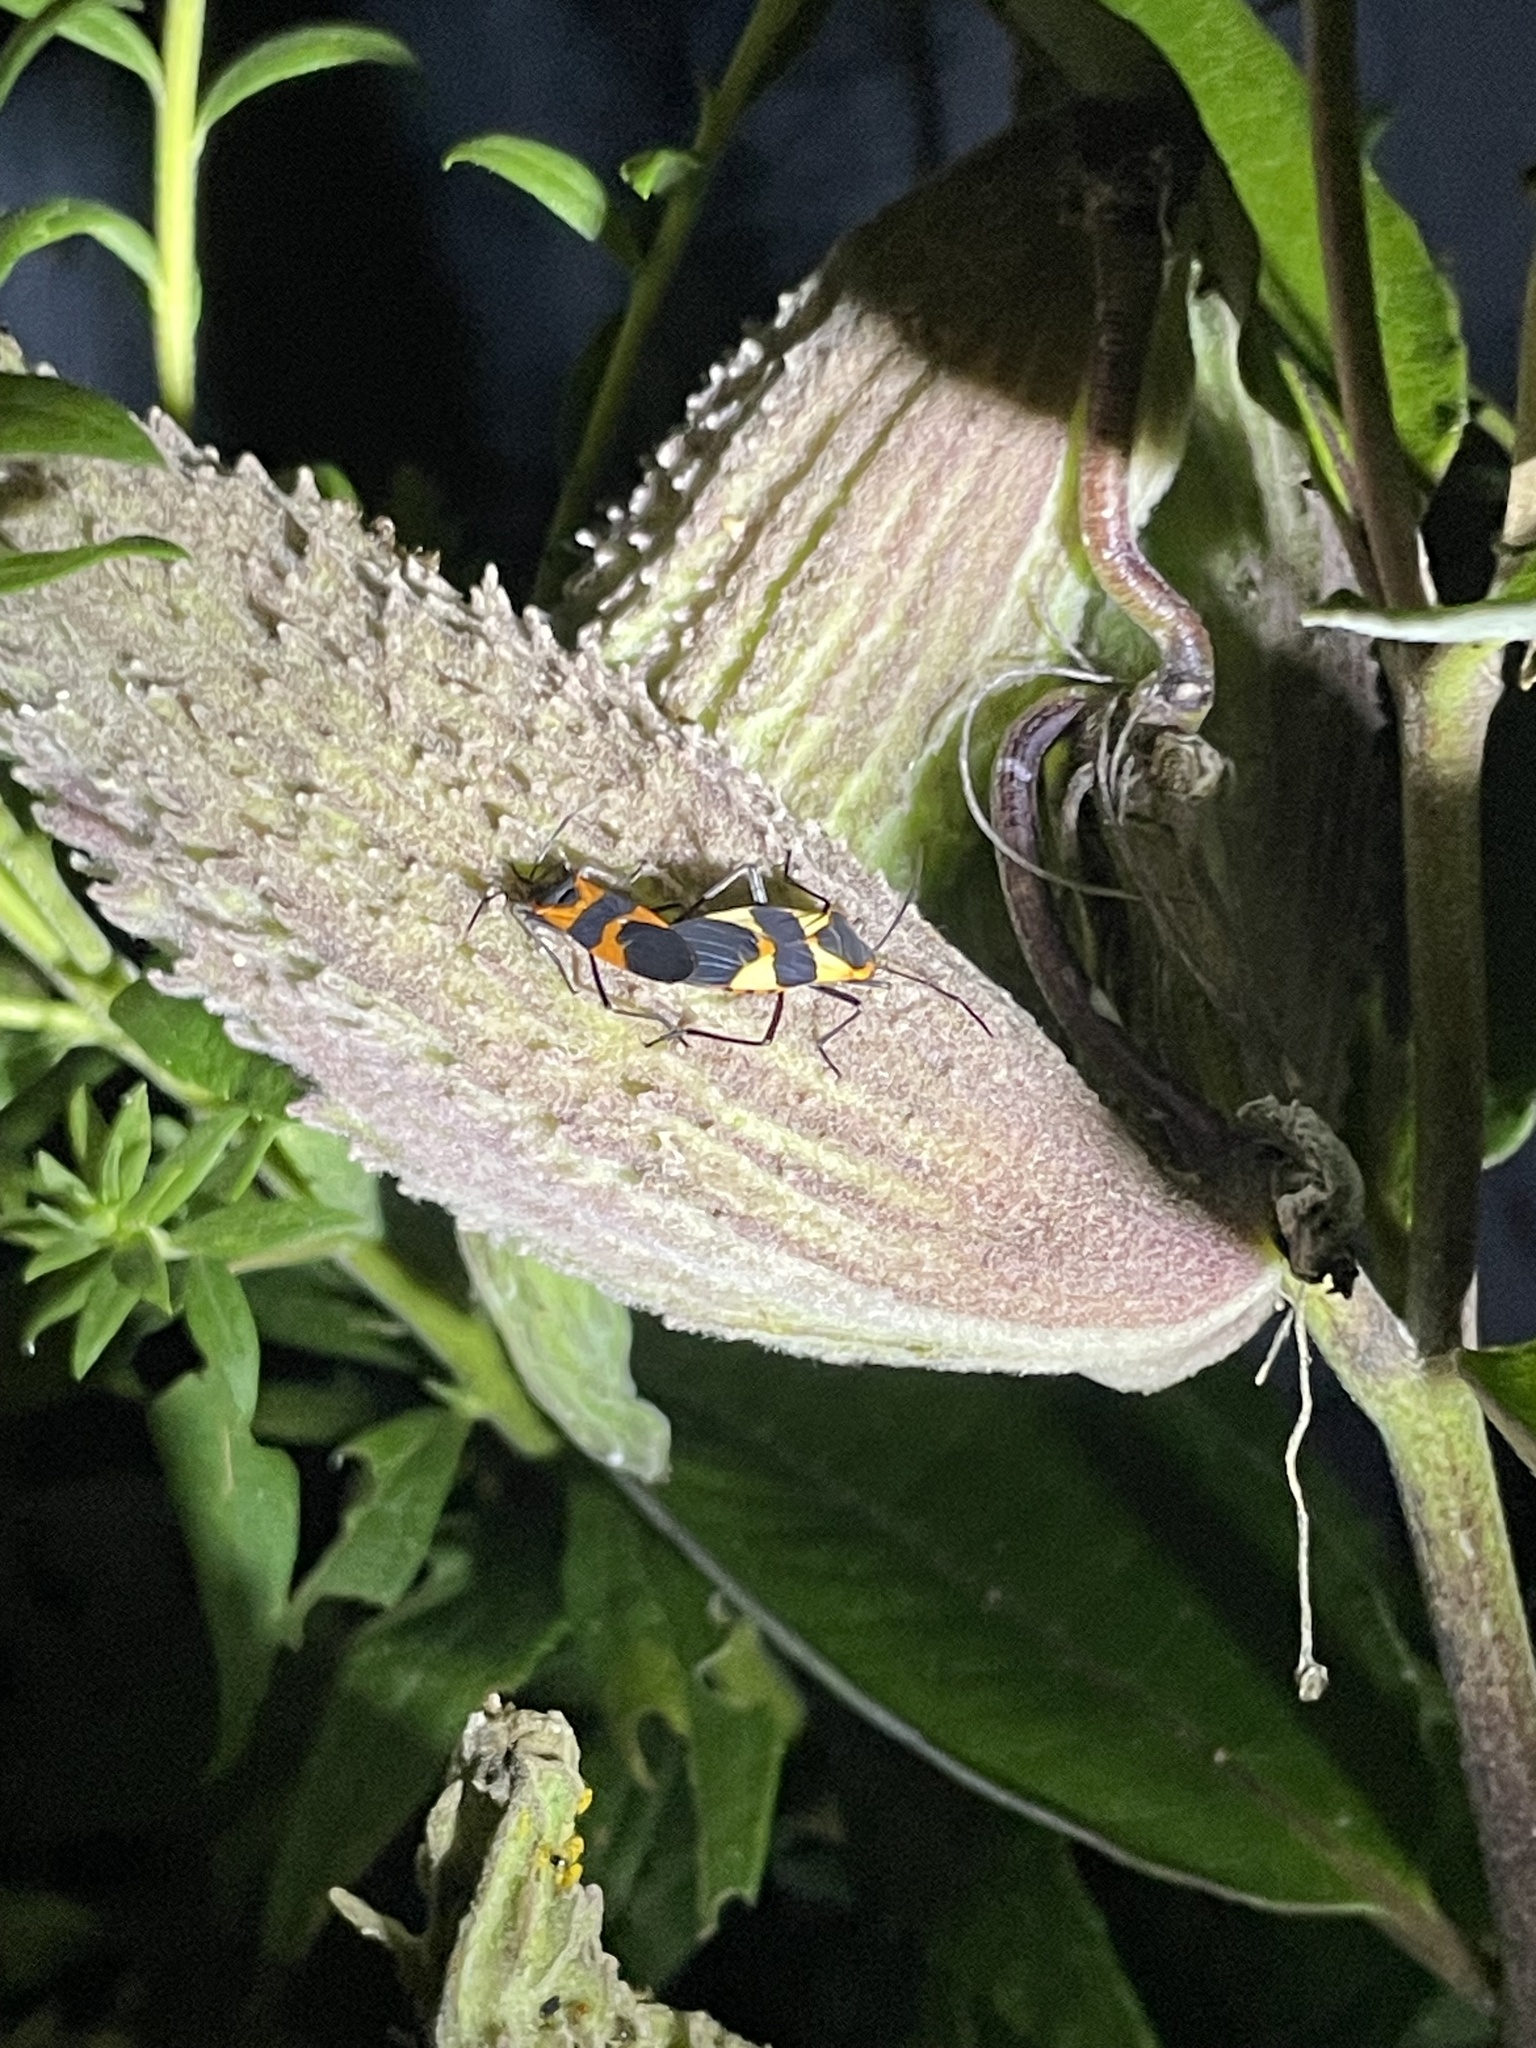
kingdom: Animalia
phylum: Arthropoda
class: Insecta
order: Hemiptera
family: Lygaeidae
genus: Oncopeltus
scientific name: Oncopeltus fasciatus
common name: Large milkweed bug
